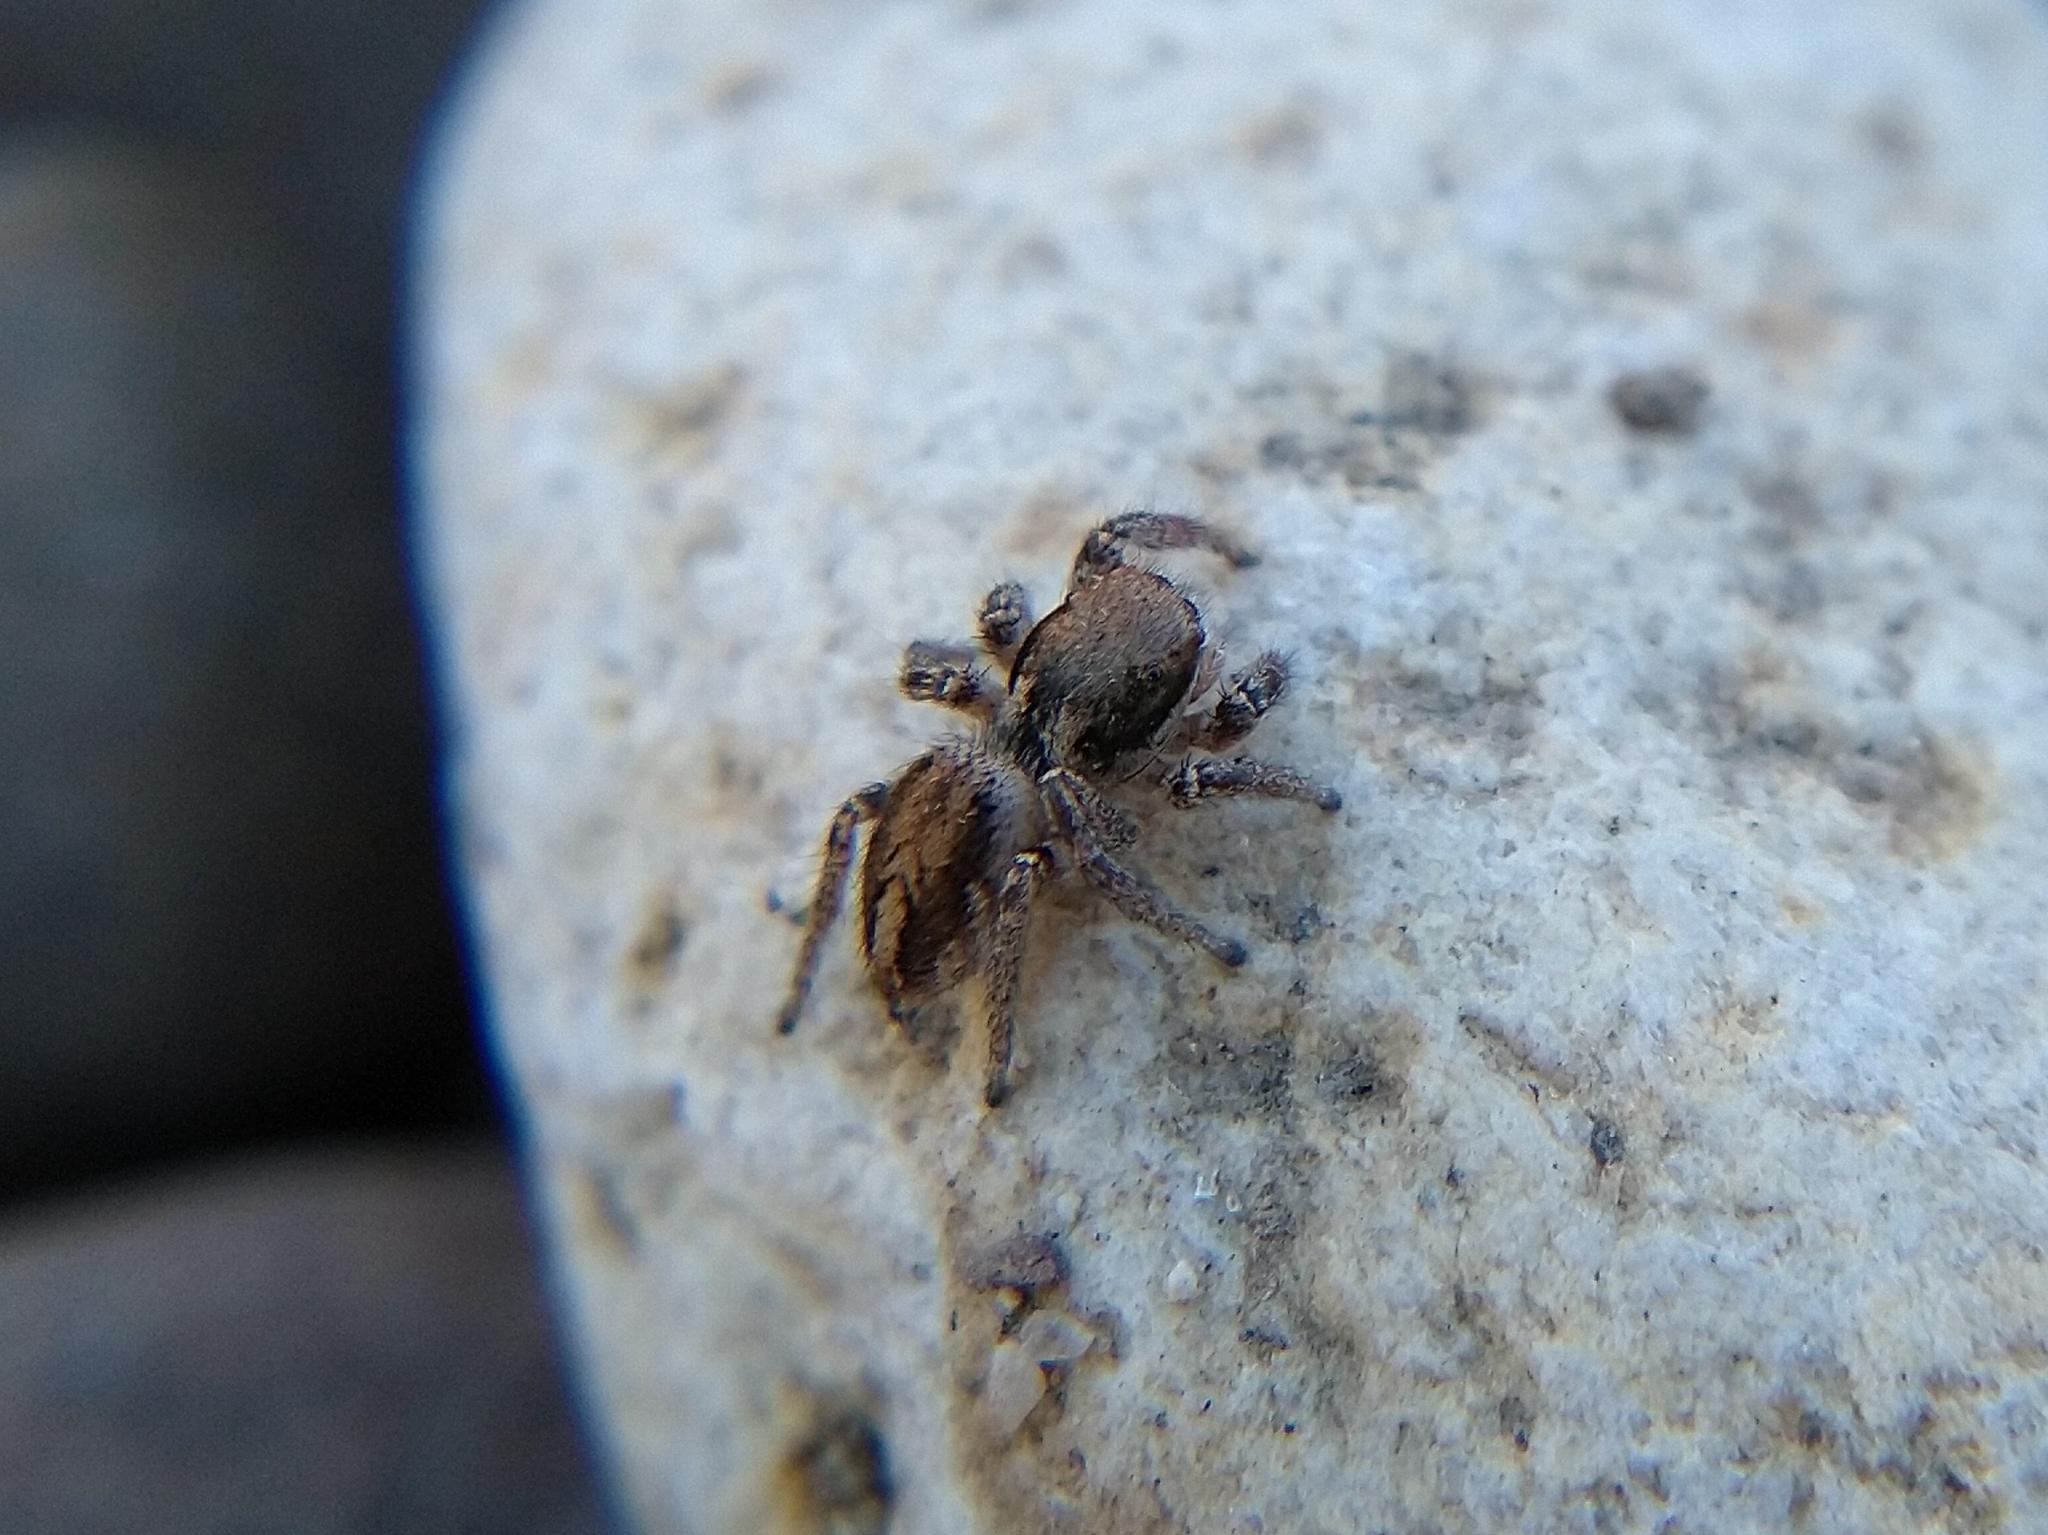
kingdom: Animalia
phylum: Arthropoda
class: Arachnida
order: Araneae
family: Salticidae
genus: Habronattus
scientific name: Habronattus pyrrithrix
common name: Jumping spider
